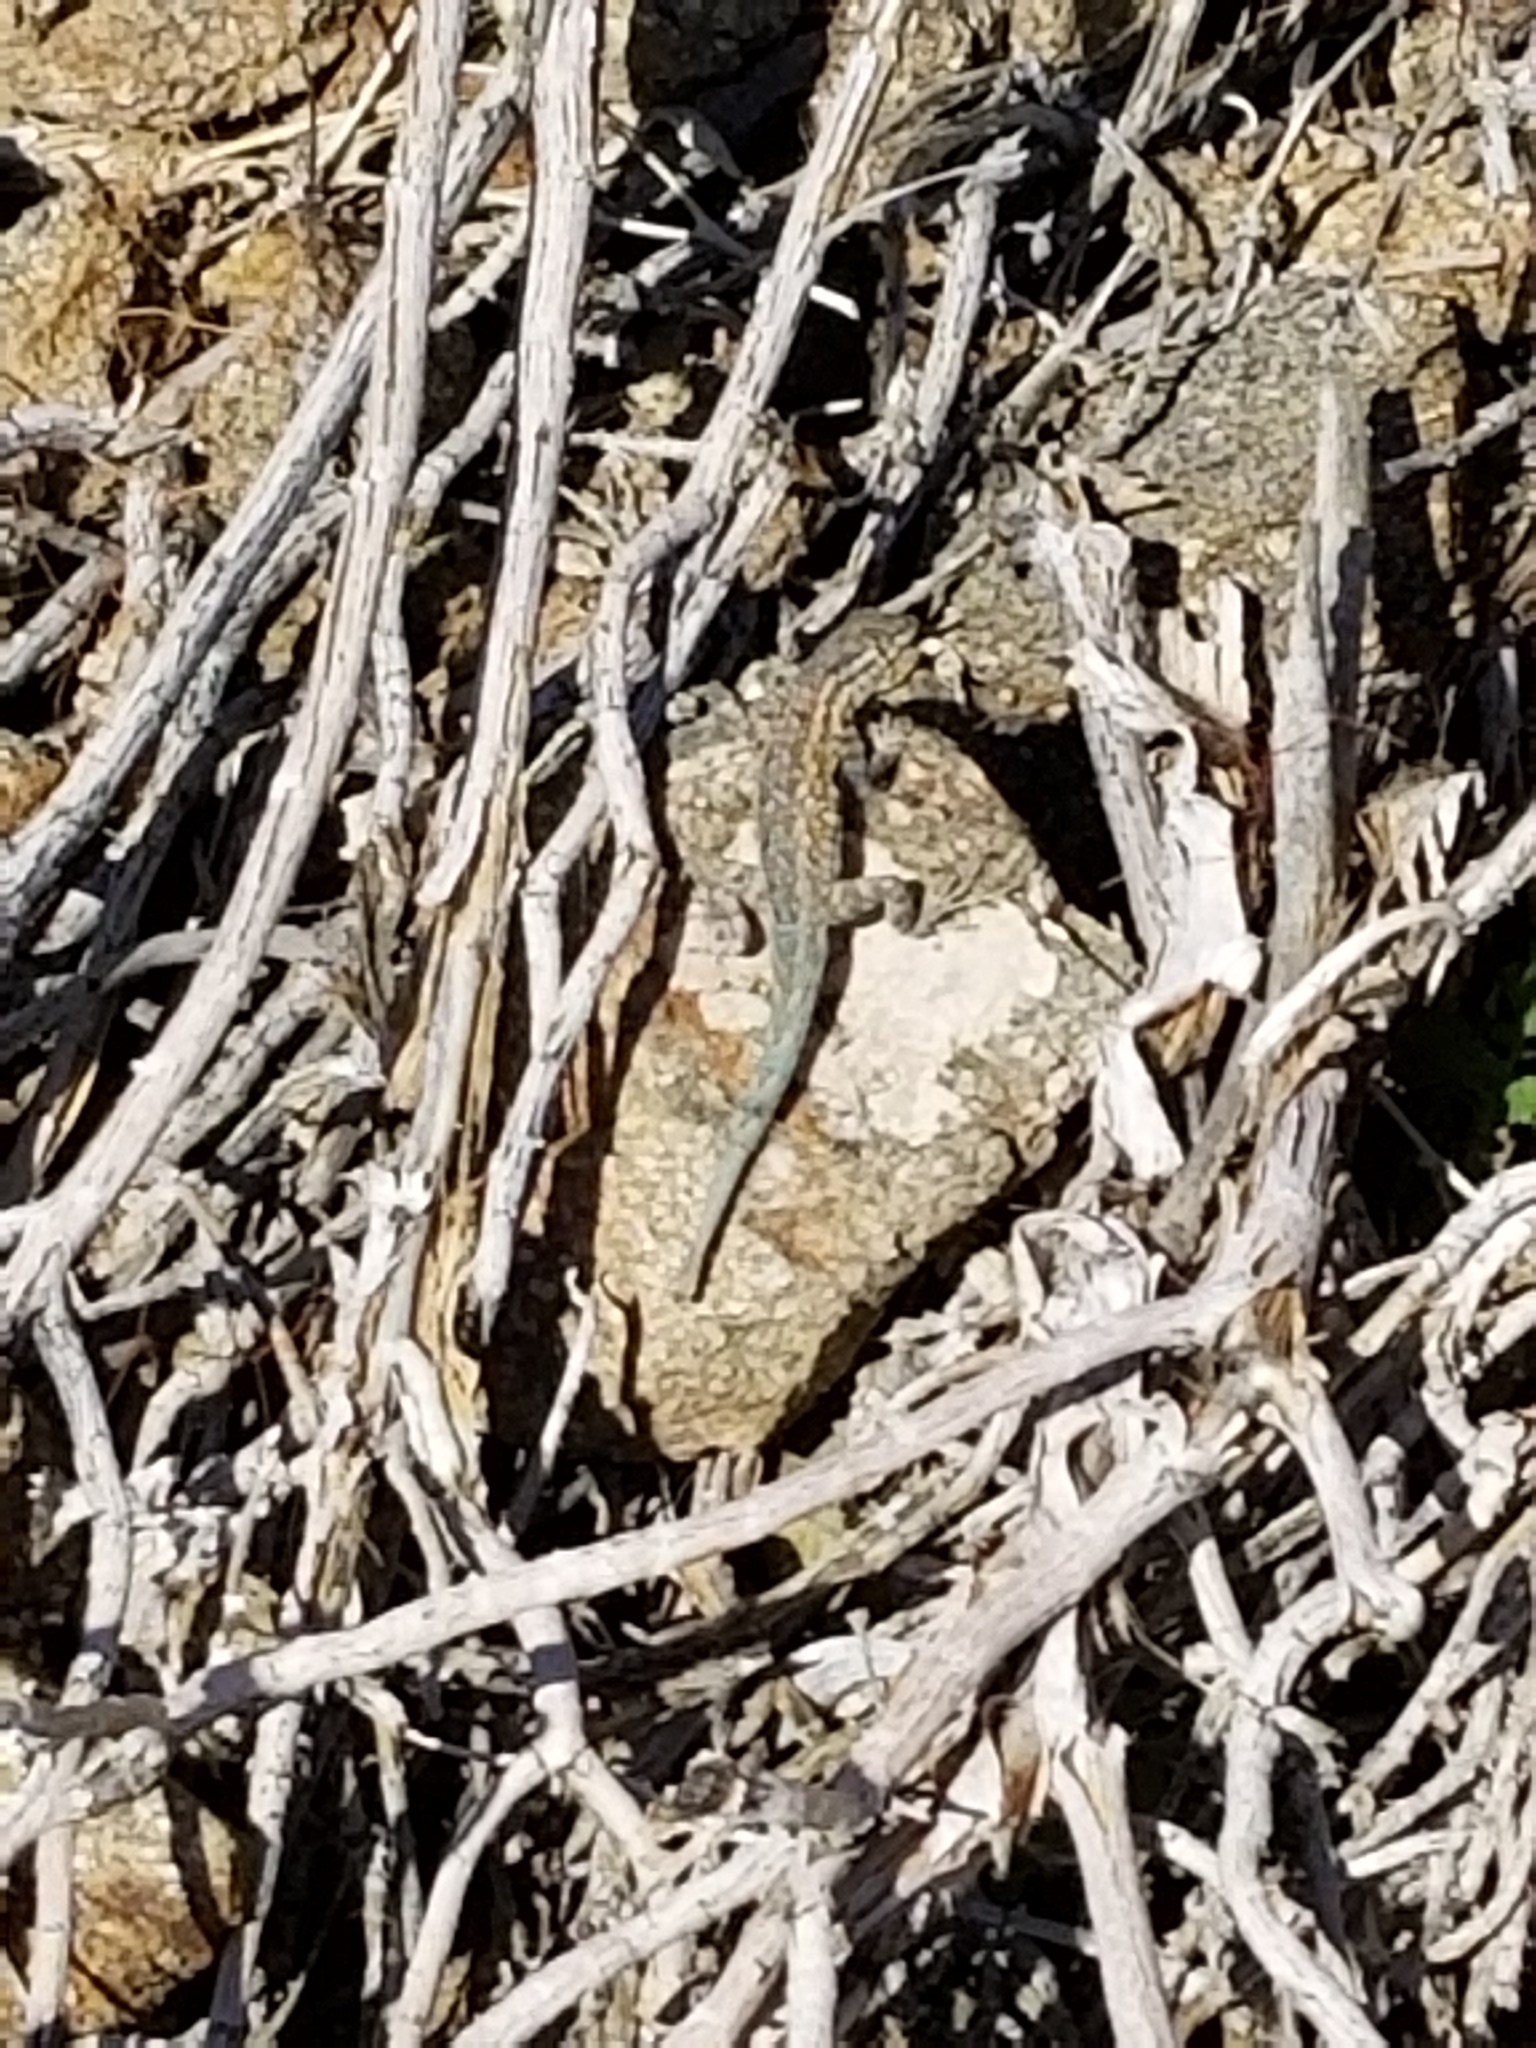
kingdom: Animalia
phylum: Chordata
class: Squamata
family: Phrynosomatidae
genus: Uta
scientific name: Uta stansburiana
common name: Side-blotched lizard
